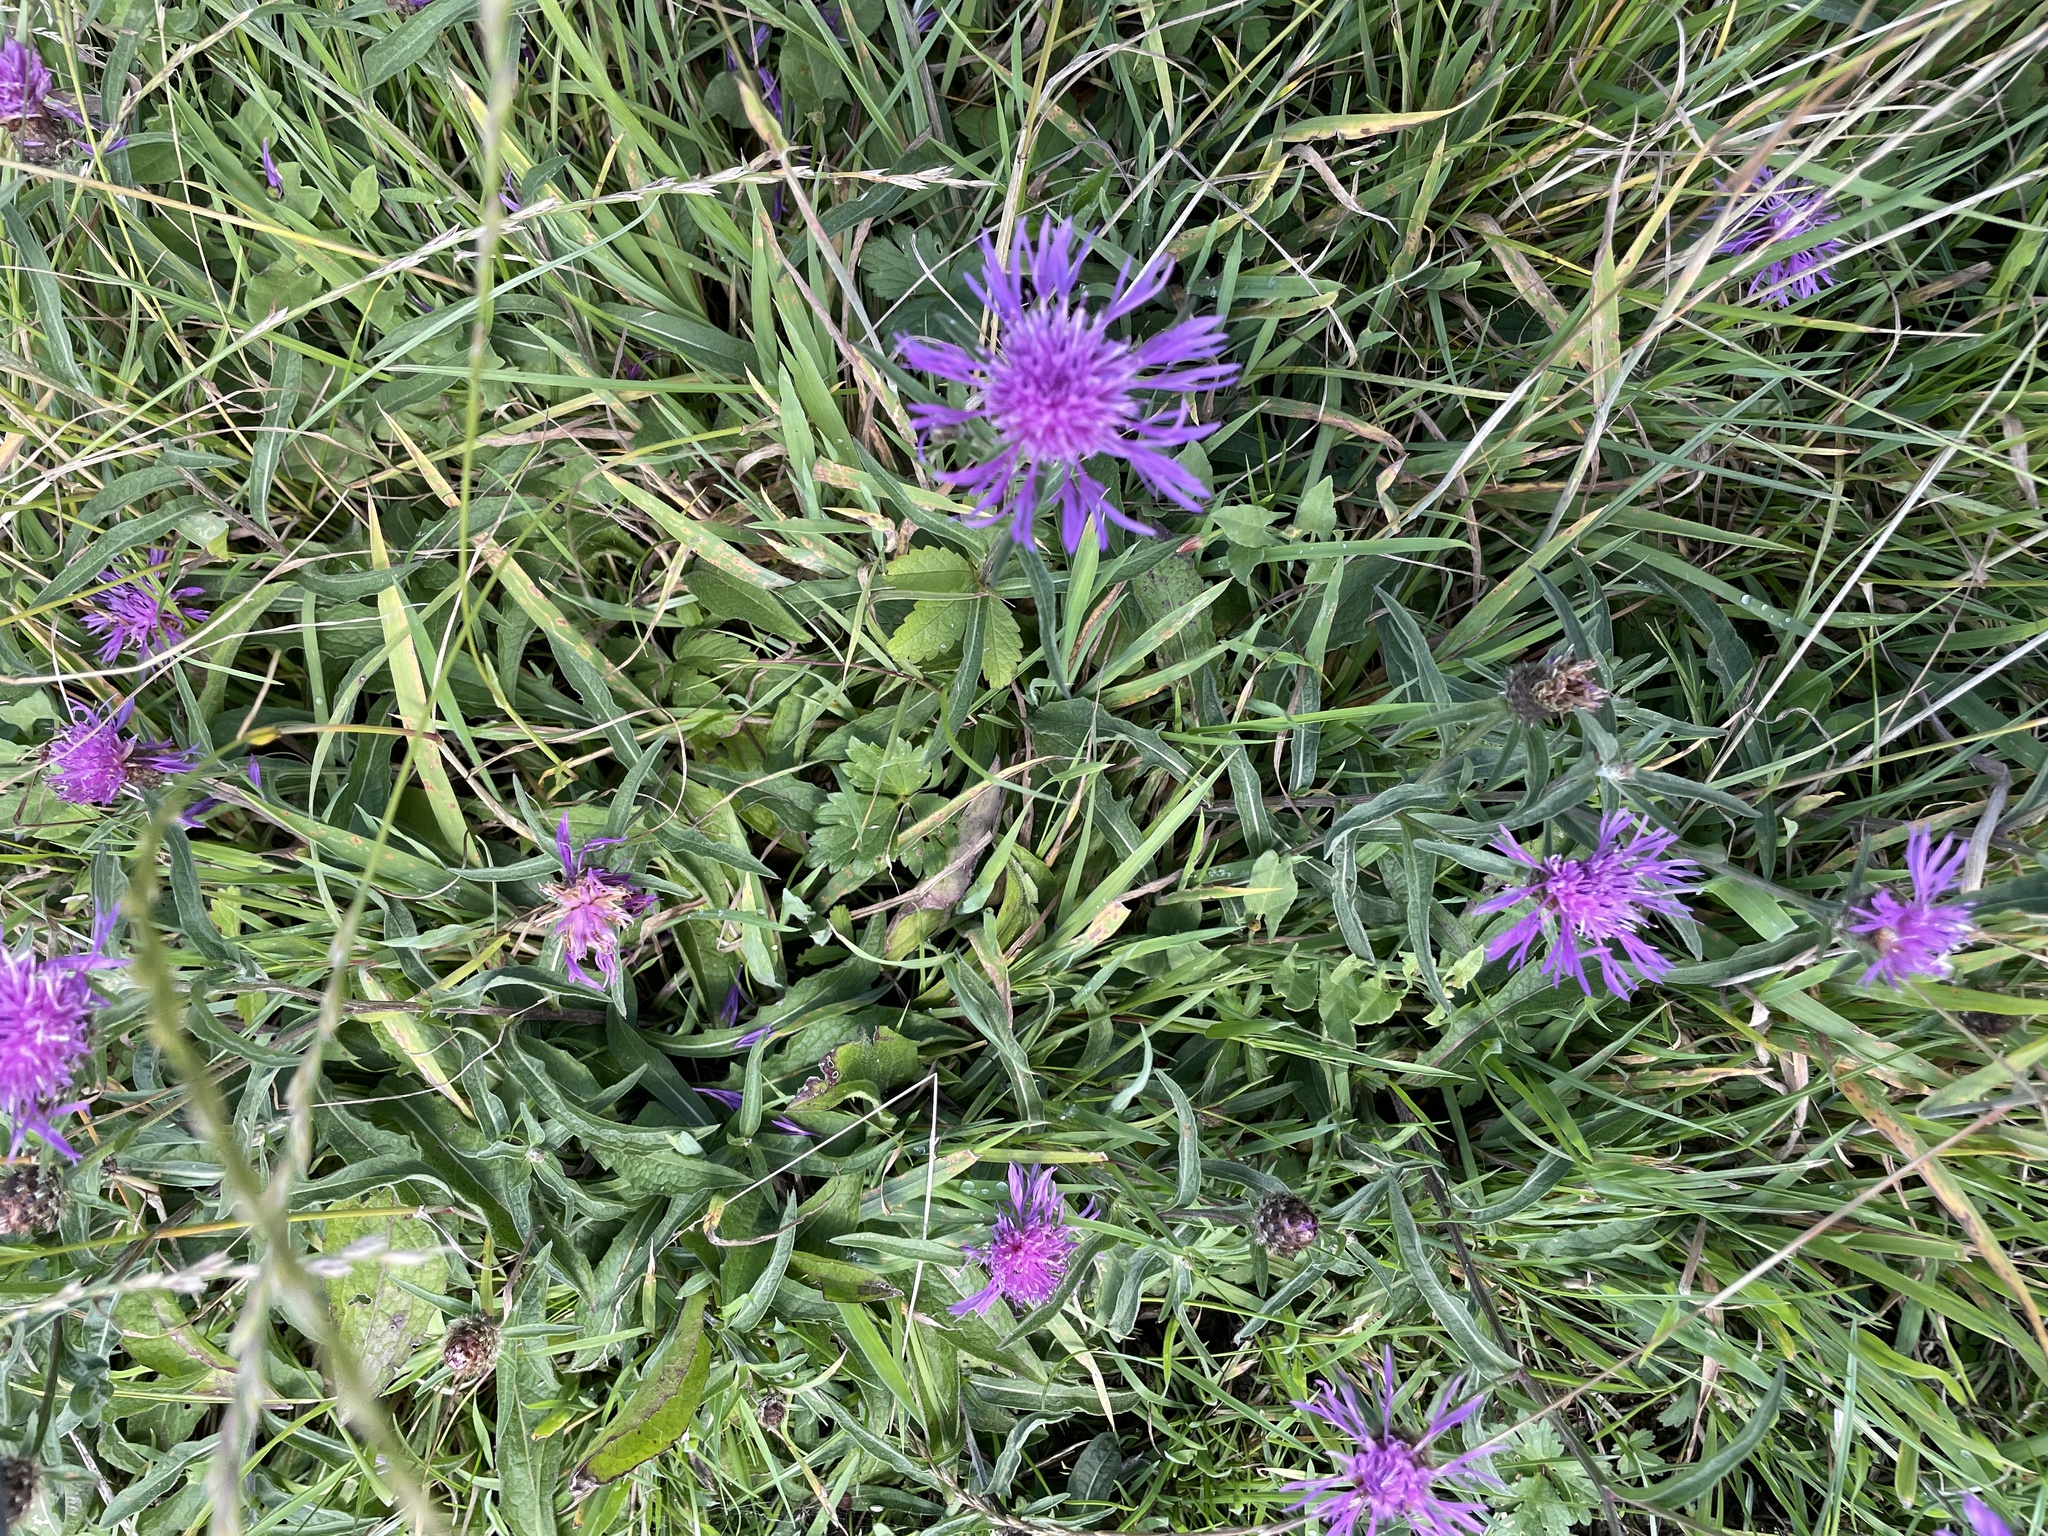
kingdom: Plantae
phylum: Tracheophyta
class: Magnoliopsida
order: Asterales
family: Asteraceae
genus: Centaurea
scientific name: Centaurea nigra
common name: Lesser knapweed
